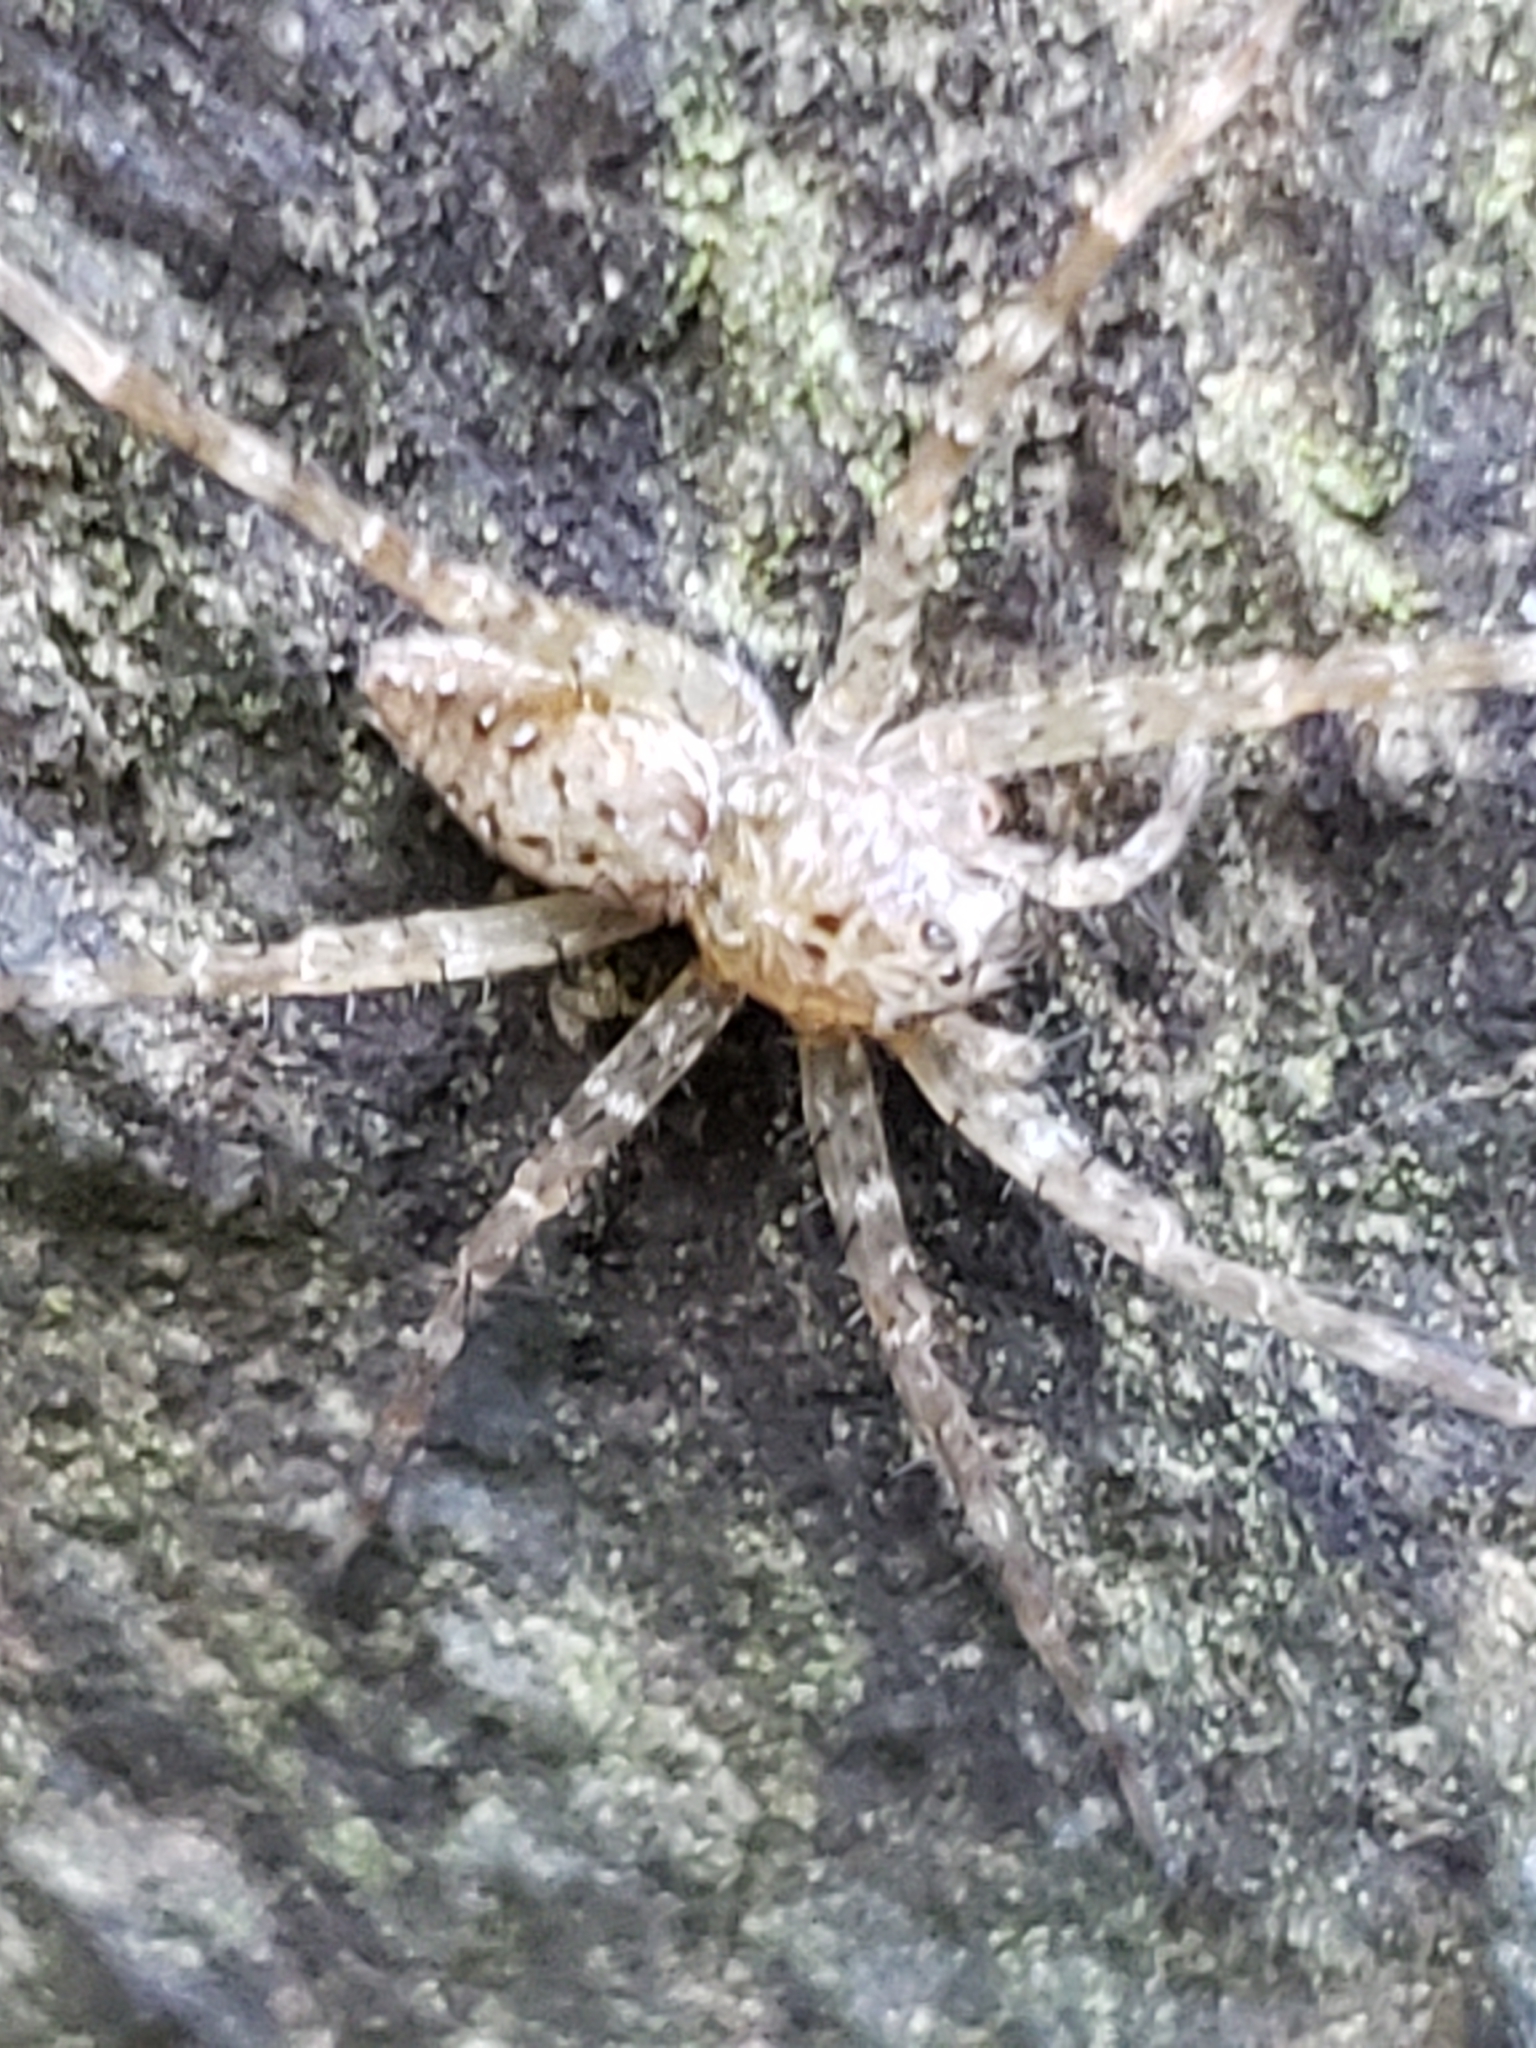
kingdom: Animalia
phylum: Arthropoda
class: Arachnida
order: Araneae
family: Pisauridae
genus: Dolomedes
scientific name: Dolomedes vittatus
